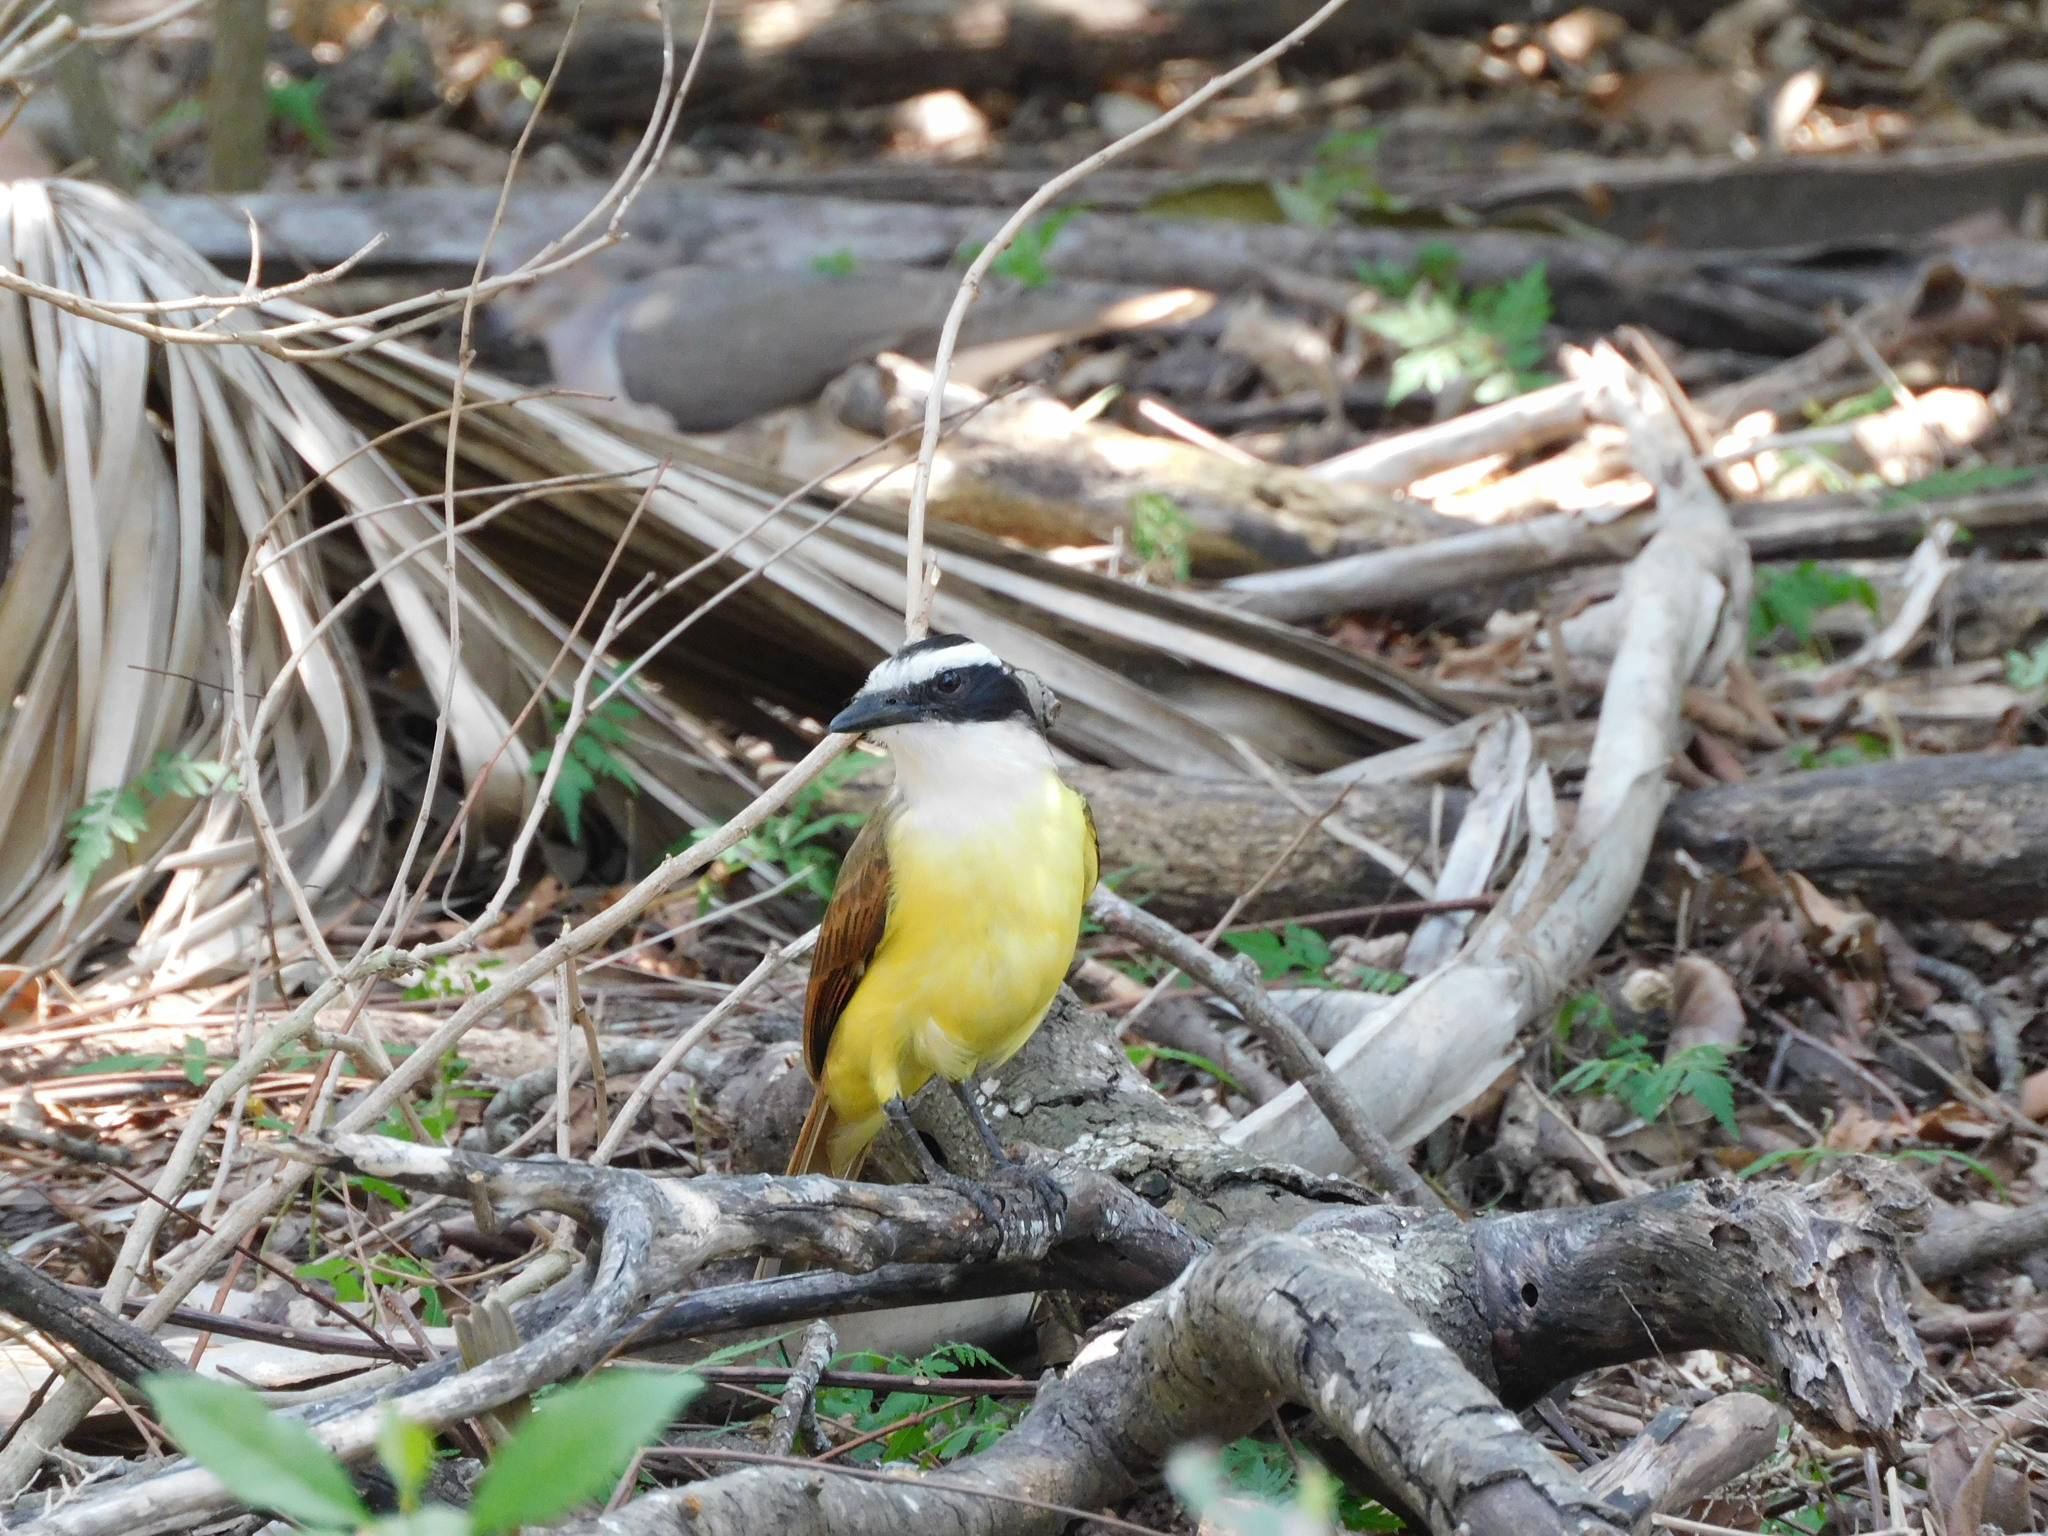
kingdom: Animalia
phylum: Chordata
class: Aves
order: Passeriformes
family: Tyrannidae
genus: Pitangus
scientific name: Pitangus sulphuratus
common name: Great kiskadee
